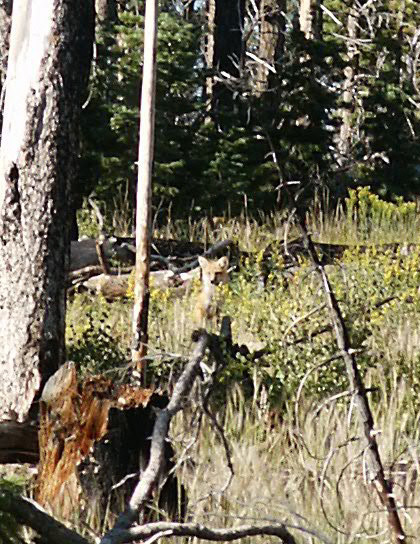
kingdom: Animalia
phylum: Chordata
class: Mammalia
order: Carnivora
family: Canidae
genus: Vulpes
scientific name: Vulpes vulpes
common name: Red fox
